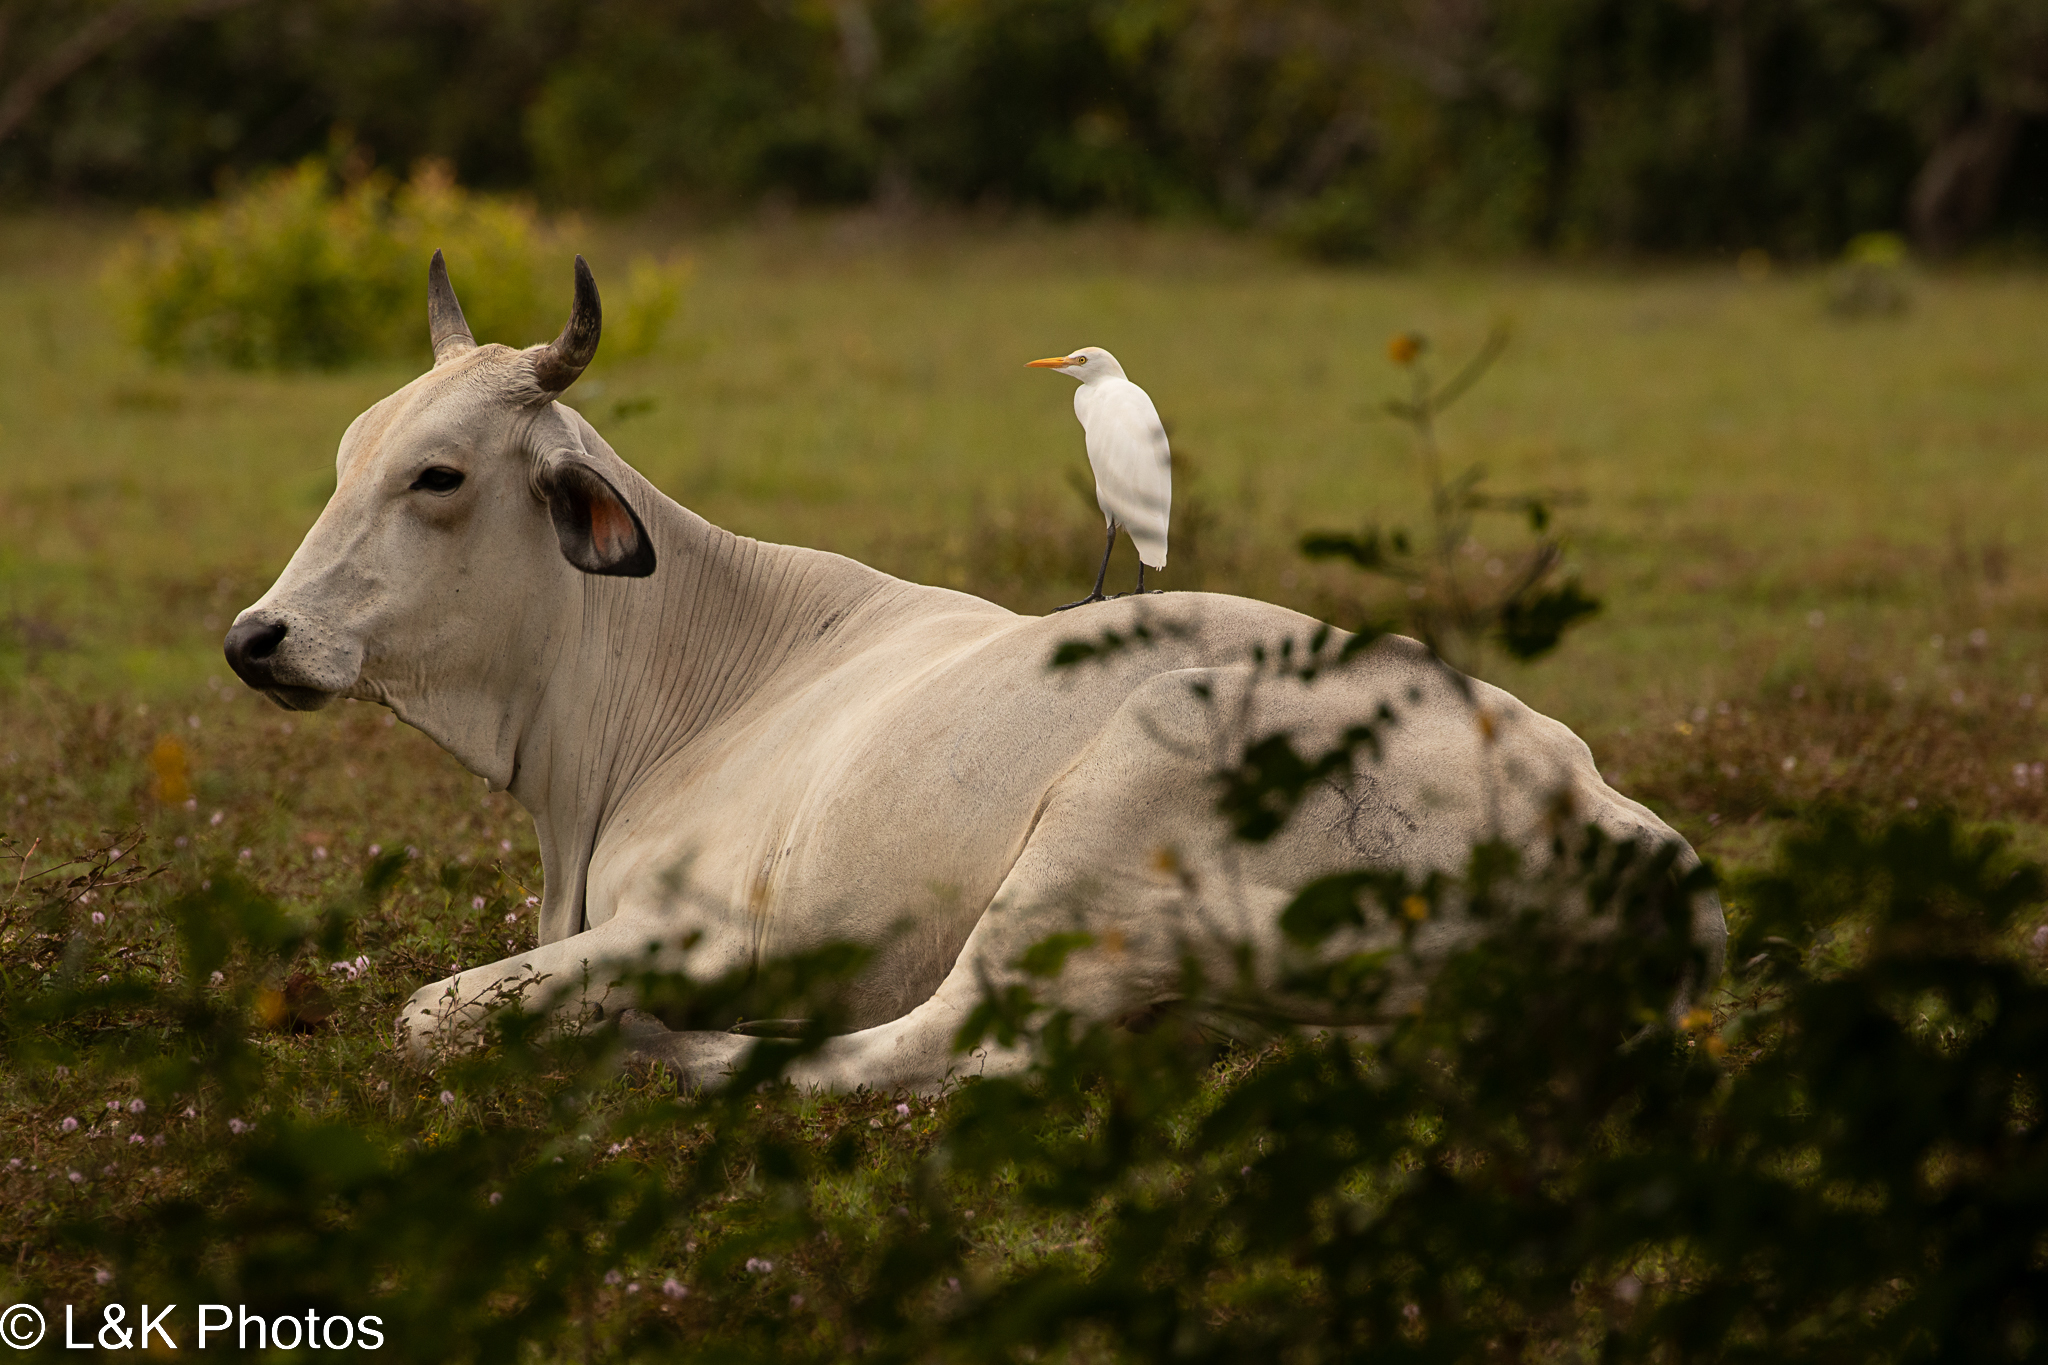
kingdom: Animalia
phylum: Chordata
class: Aves
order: Pelecaniformes
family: Ardeidae
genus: Bubulcus
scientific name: Bubulcus ibis
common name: Cattle egret
